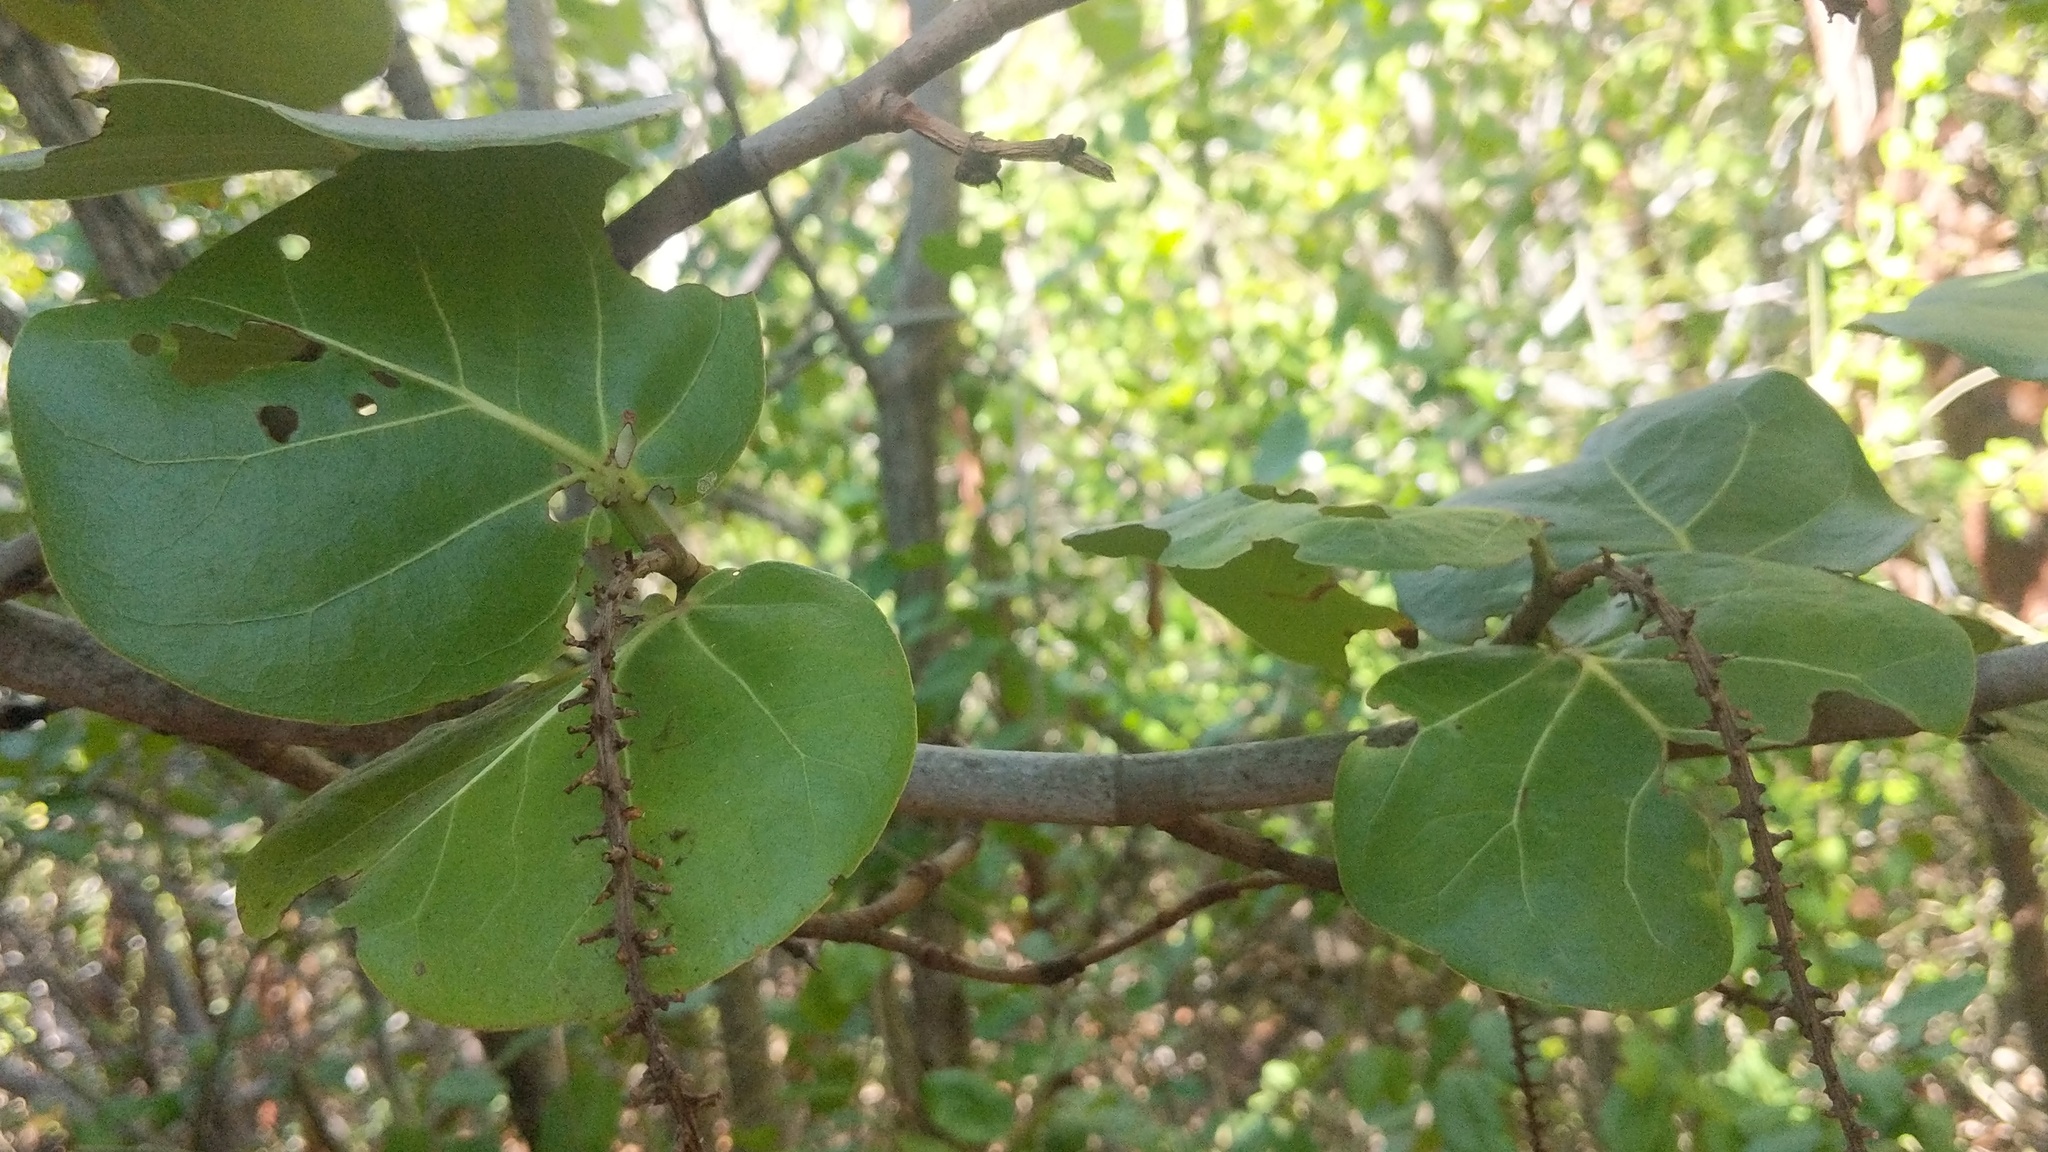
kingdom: Plantae
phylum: Tracheophyta
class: Magnoliopsida
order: Caryophyllales
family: Polygonaceae
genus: Coccoloba
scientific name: Coccoloba uvifera
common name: Seagrape
